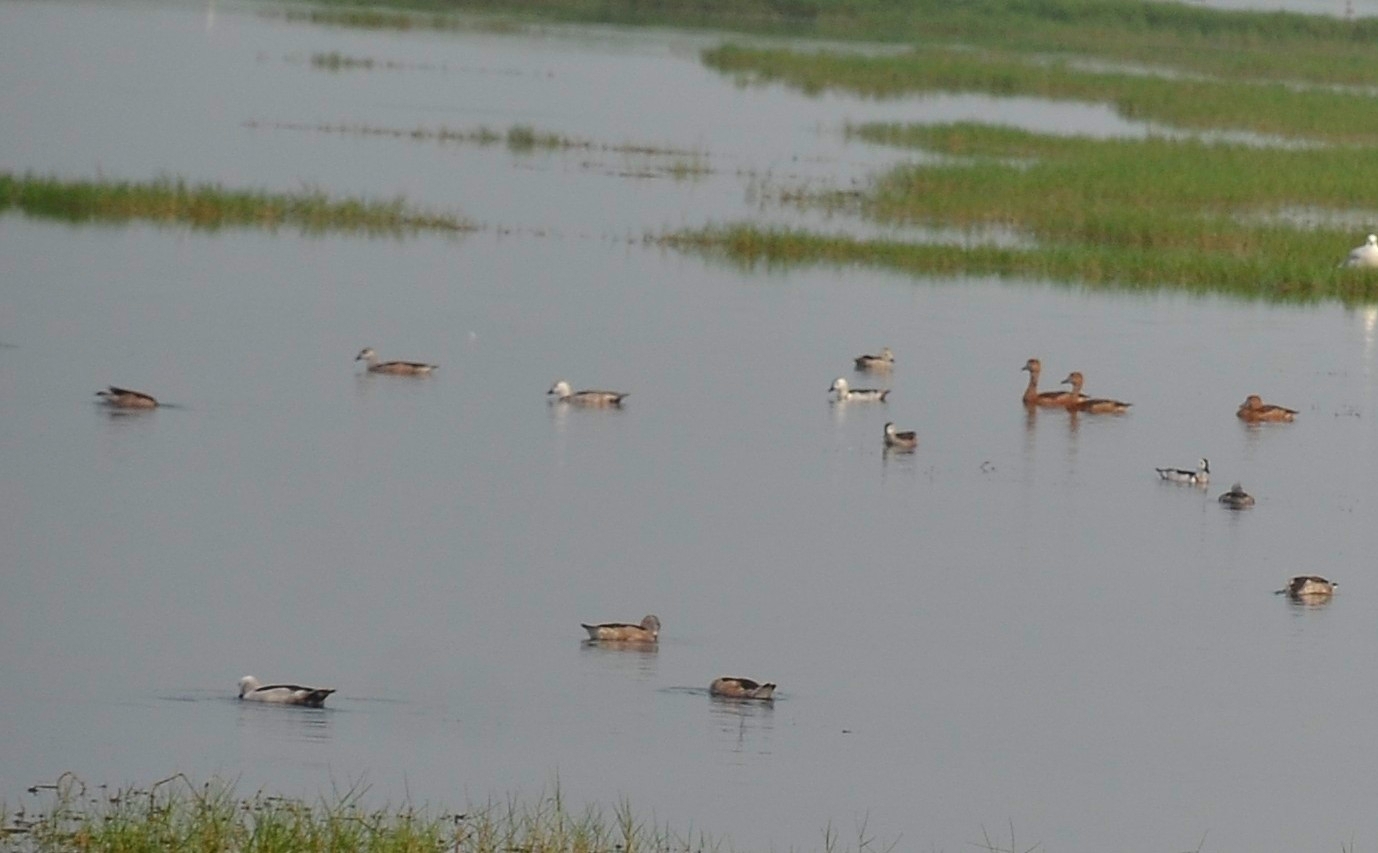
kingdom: Animalia
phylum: Chordata
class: Aves
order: Anseriformes
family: Anatidae
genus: Nettapus
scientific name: Nettapus coromandelianus
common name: Cotton pygmy-goose
